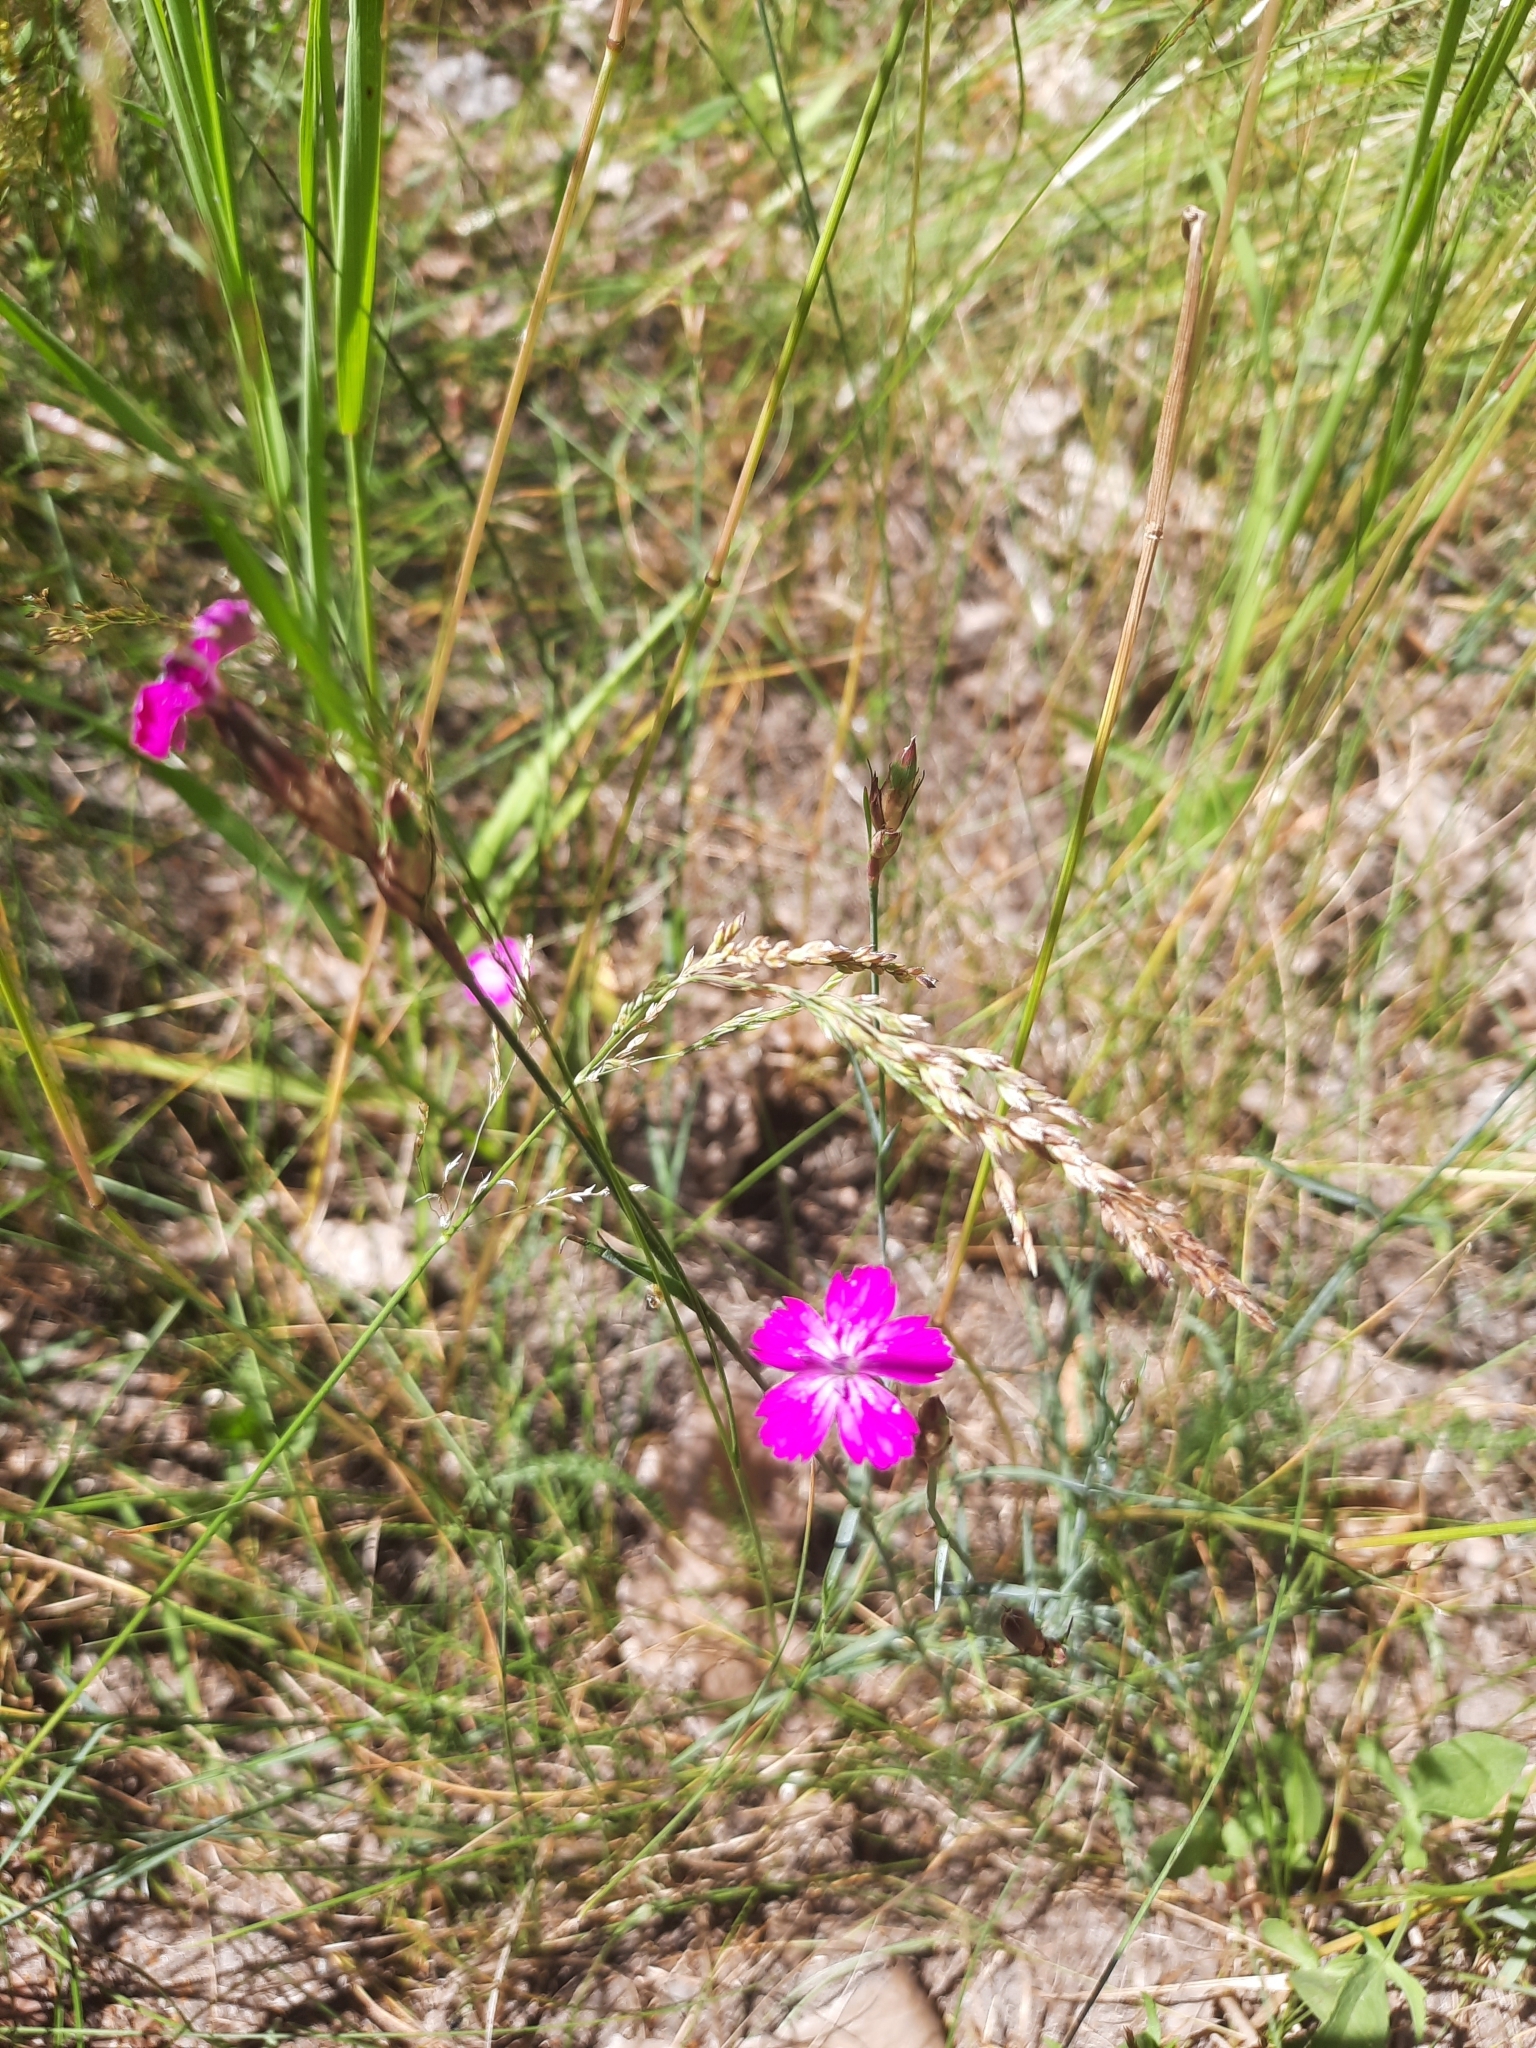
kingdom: Plantae
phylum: Tracheophyta
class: Magnoliopsida
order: Caryophyllales
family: Caryophyllaceae
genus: Dianthus
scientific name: Dianthus borbasii
